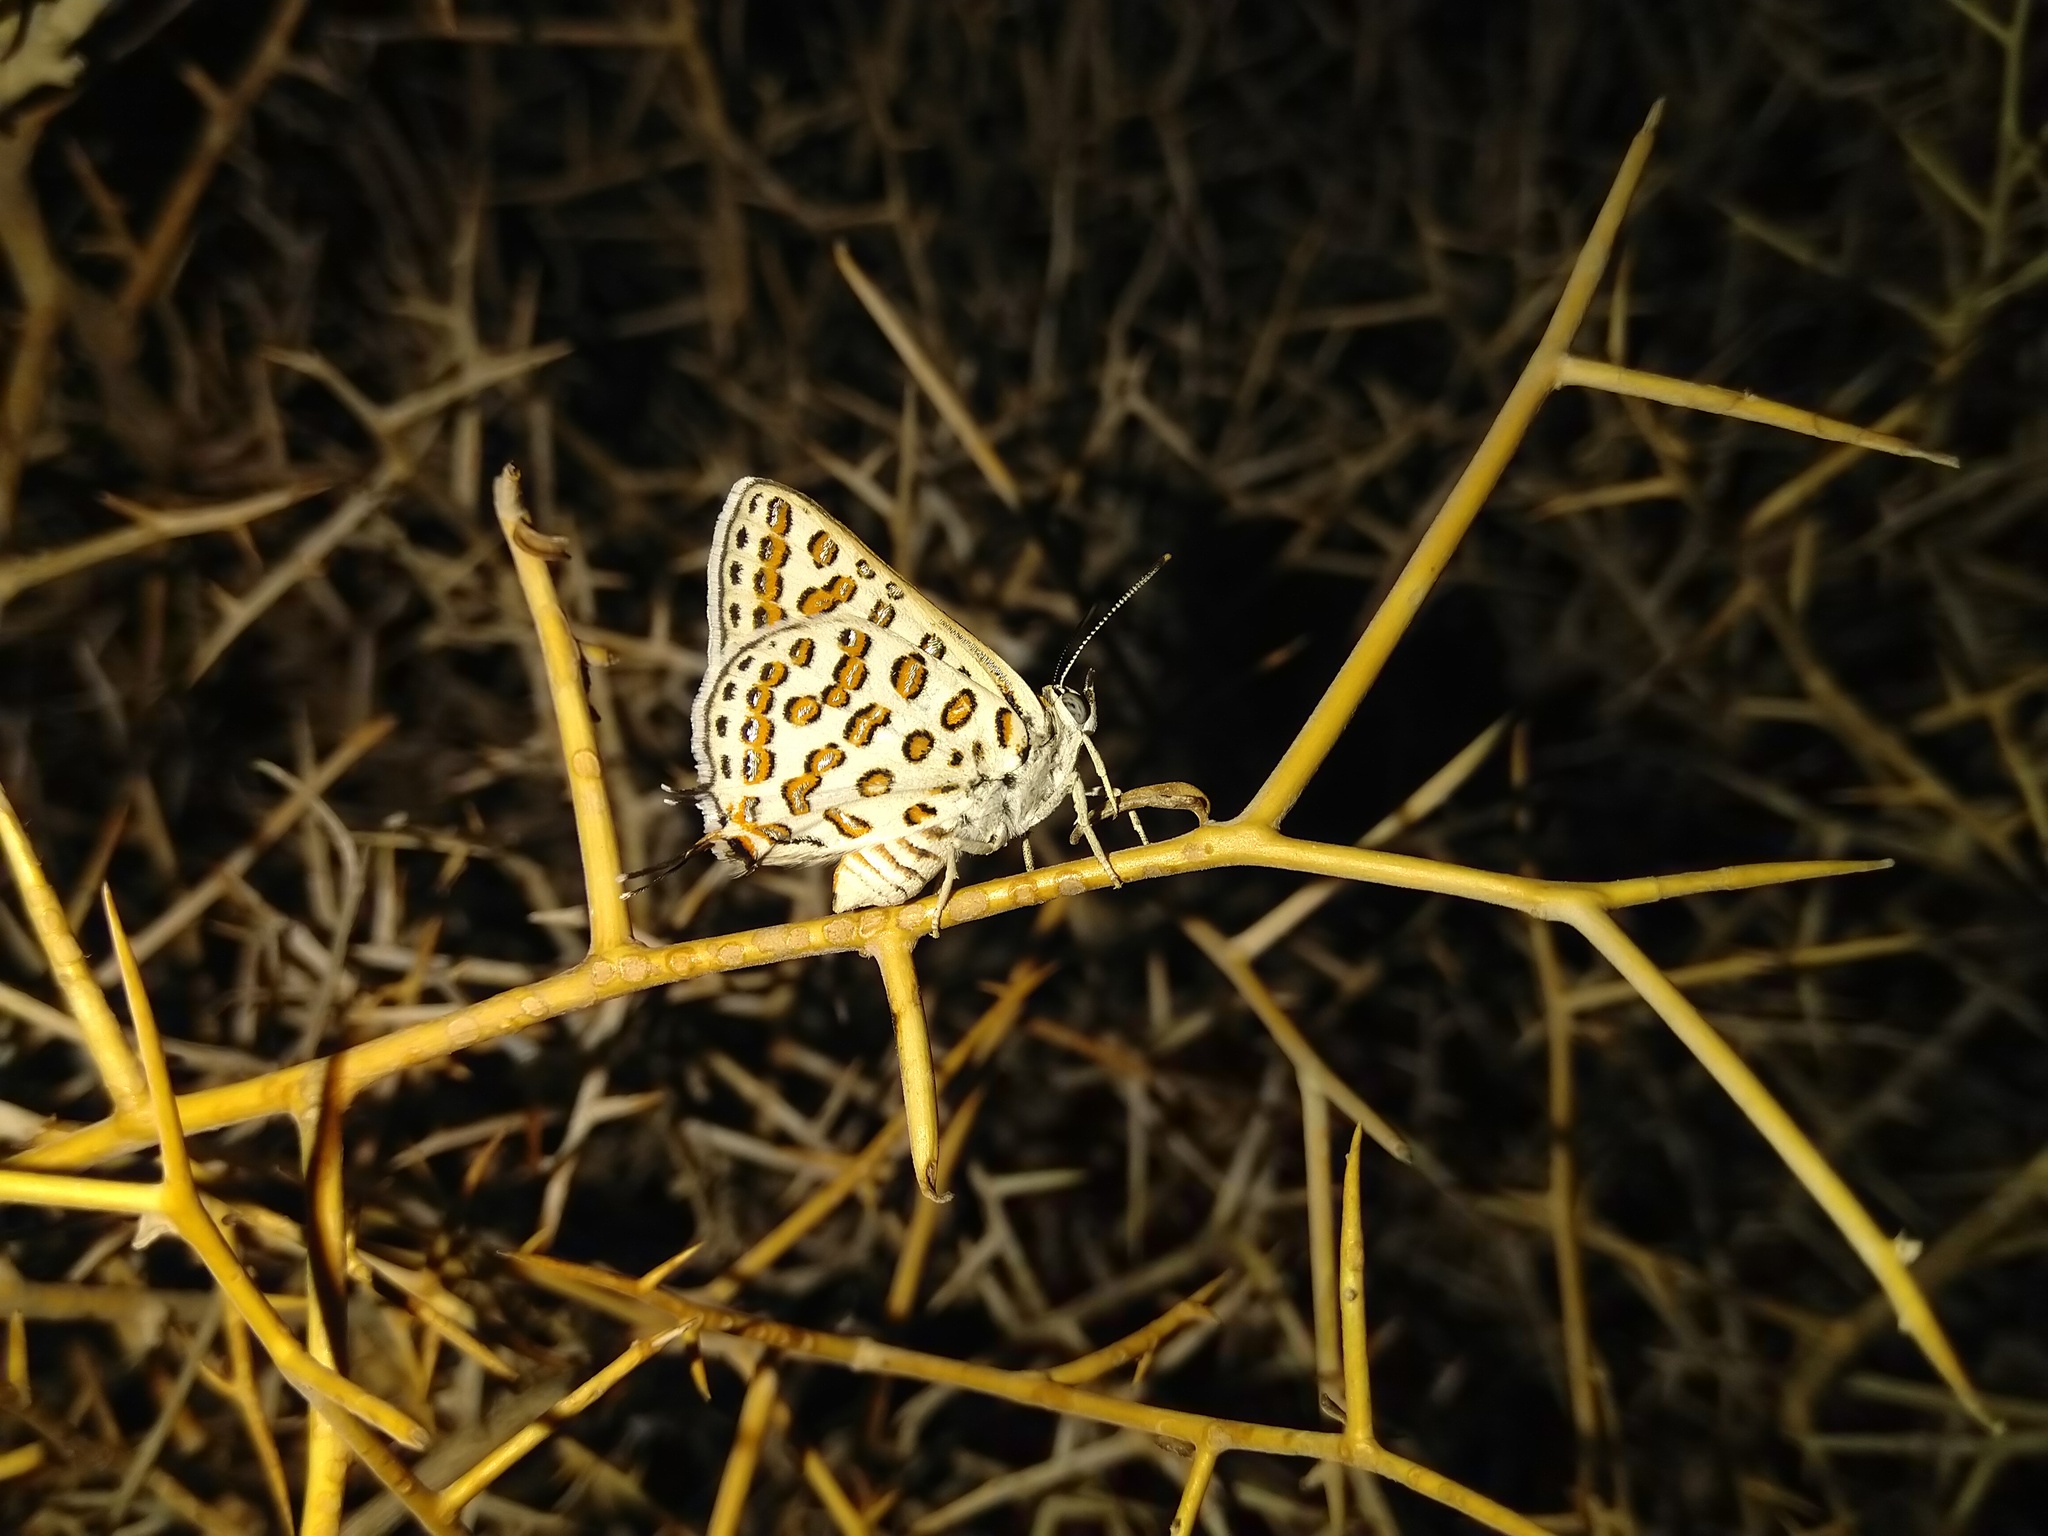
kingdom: Animalia
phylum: Arthropoda
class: Insecta
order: Lepidoptera
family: Lycaenidae
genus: Cigaritis
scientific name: Cigaritis myrmecophila
